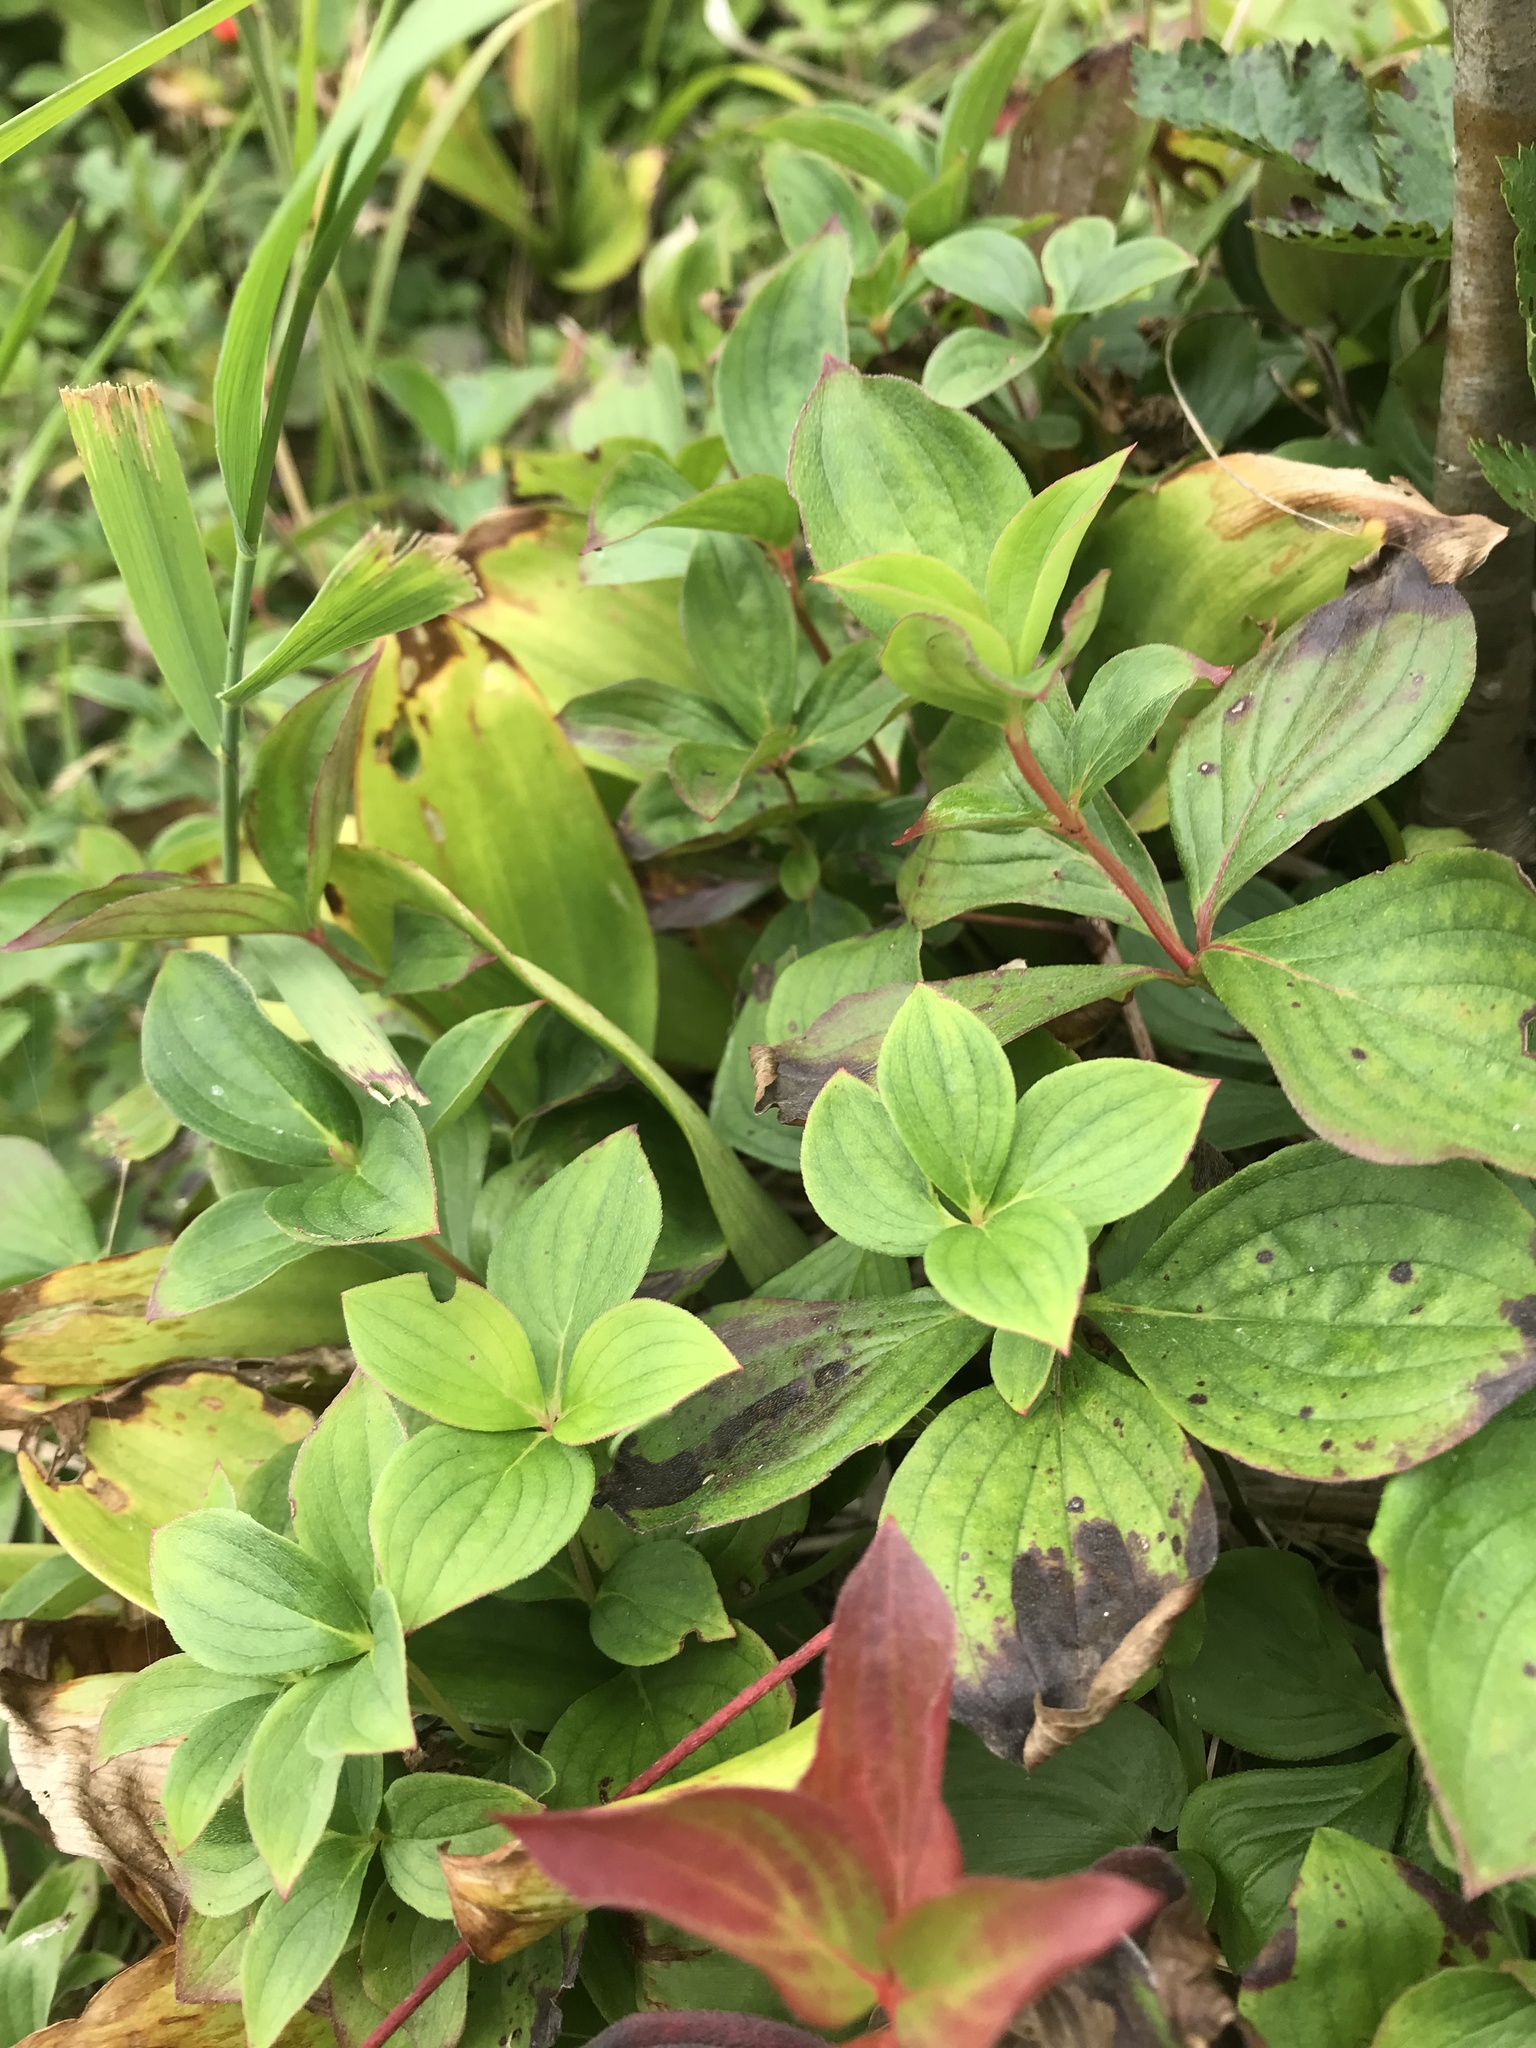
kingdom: Plantae
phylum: Tracheophyta
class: Magnoliopsida
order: Cornales
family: Cornaceae
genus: Cornus
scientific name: Cornus canadensis
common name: Creeping dogwood
